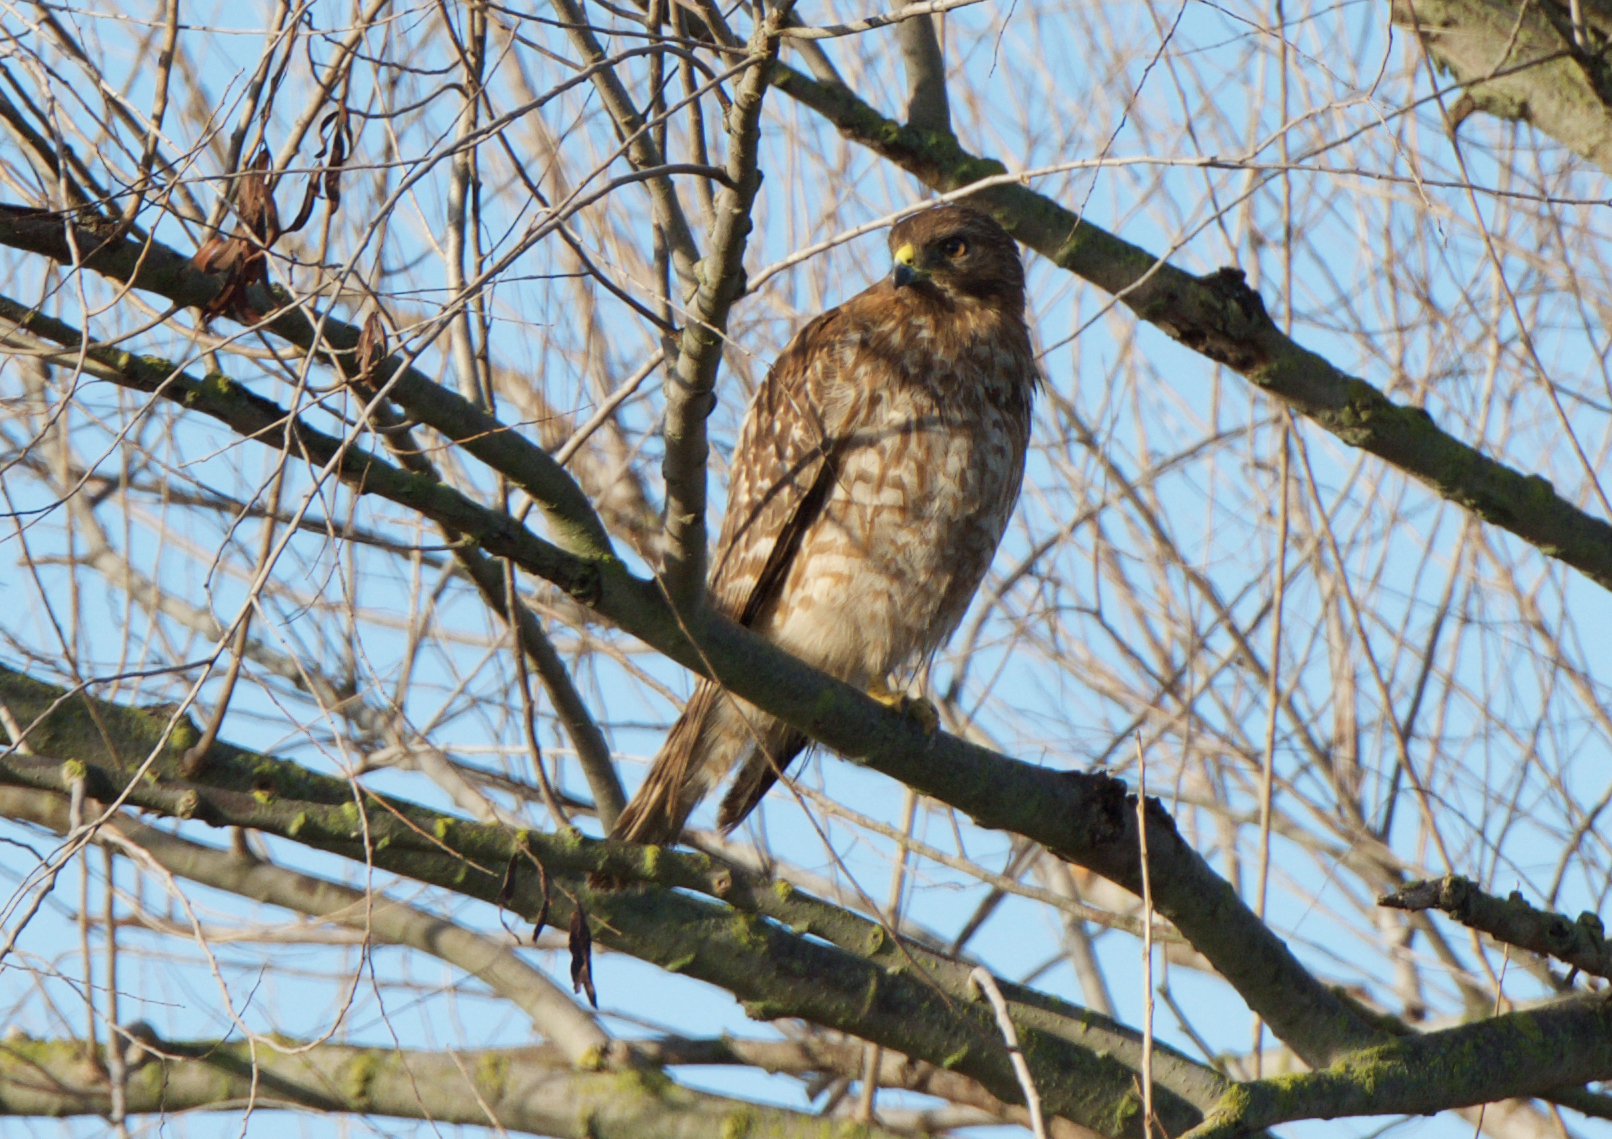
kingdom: Animalia
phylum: Chordata
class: Aves
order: Accipitriformes
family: Accipitridae
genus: Buteo
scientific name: Buteo lineatus
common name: Red-shouldered hawk
